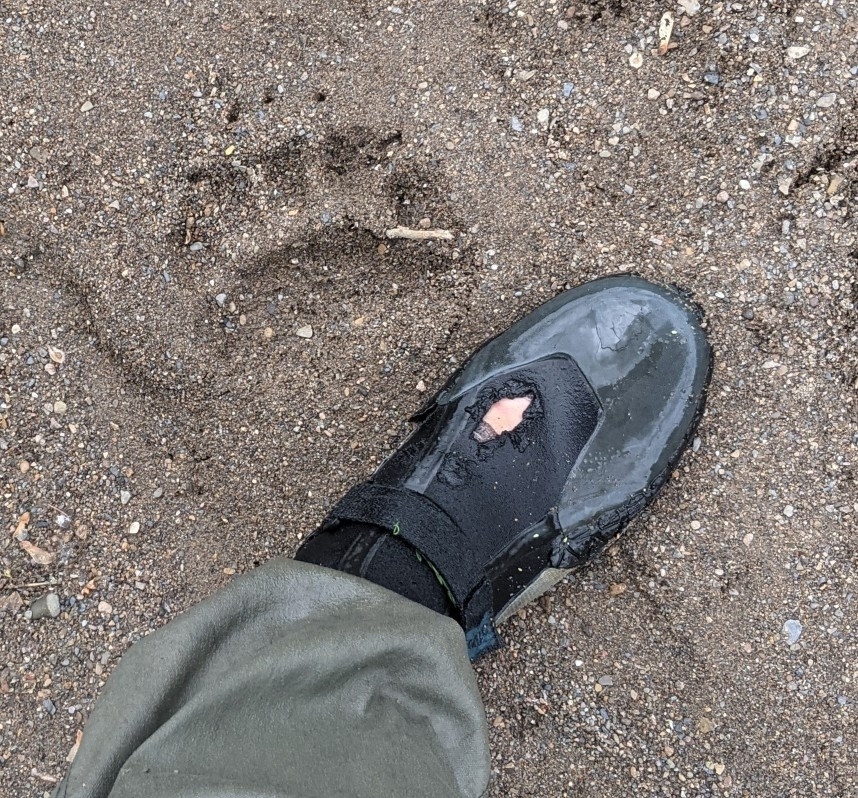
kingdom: Animalia
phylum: Chordata
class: Mammalia
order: Carnivora
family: Ursidae
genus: Ursus
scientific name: Ursus americanus
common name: American black bear
